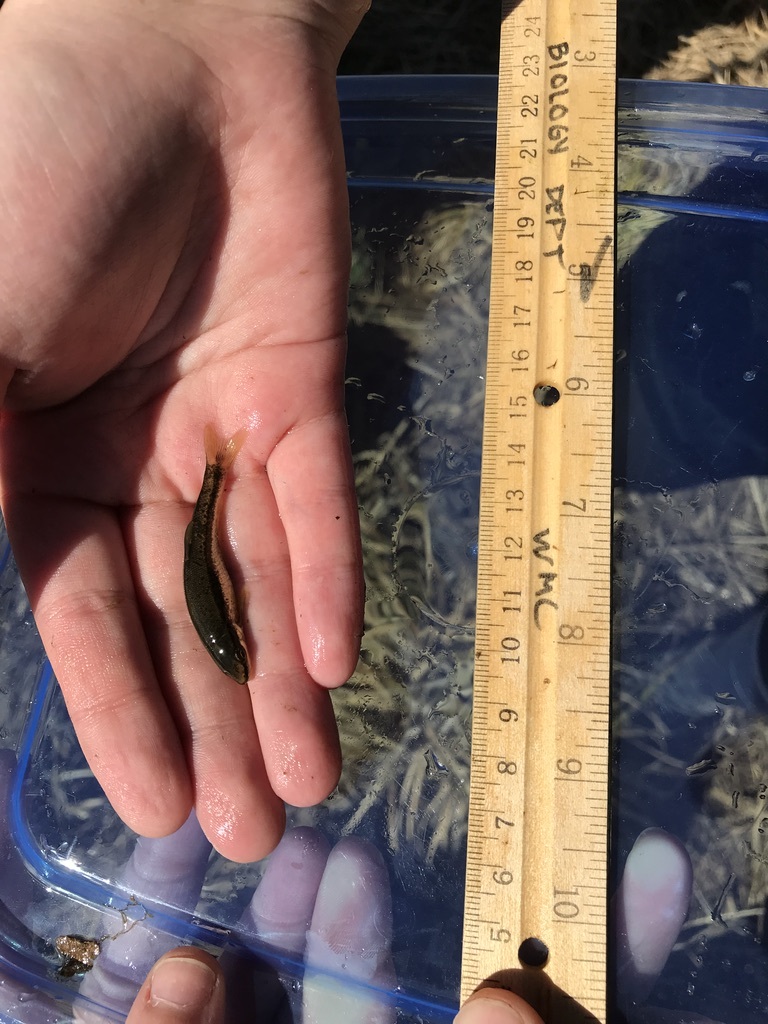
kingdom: Animalia
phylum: Chordata
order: Cypriniformes
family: Cyprinidae
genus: Rhinichthys
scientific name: Rhinichthys atratulus
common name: Eastern blacknose dace
